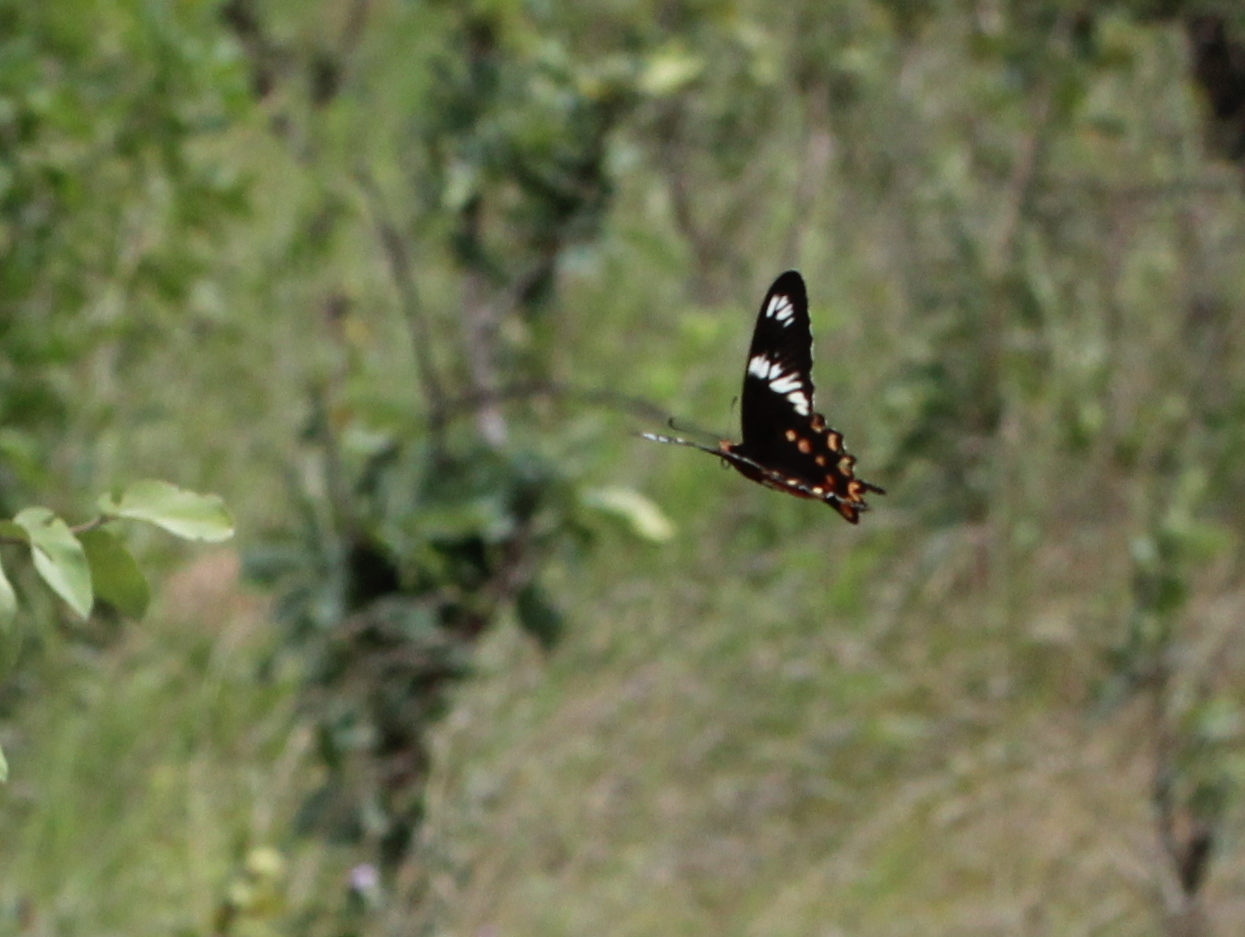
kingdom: Animalia
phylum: Arthropoda
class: Insecta
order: Lepidoptera
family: Papilionidae
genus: Pachliopta
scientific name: Pachliopta hector
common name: Crimson rose
